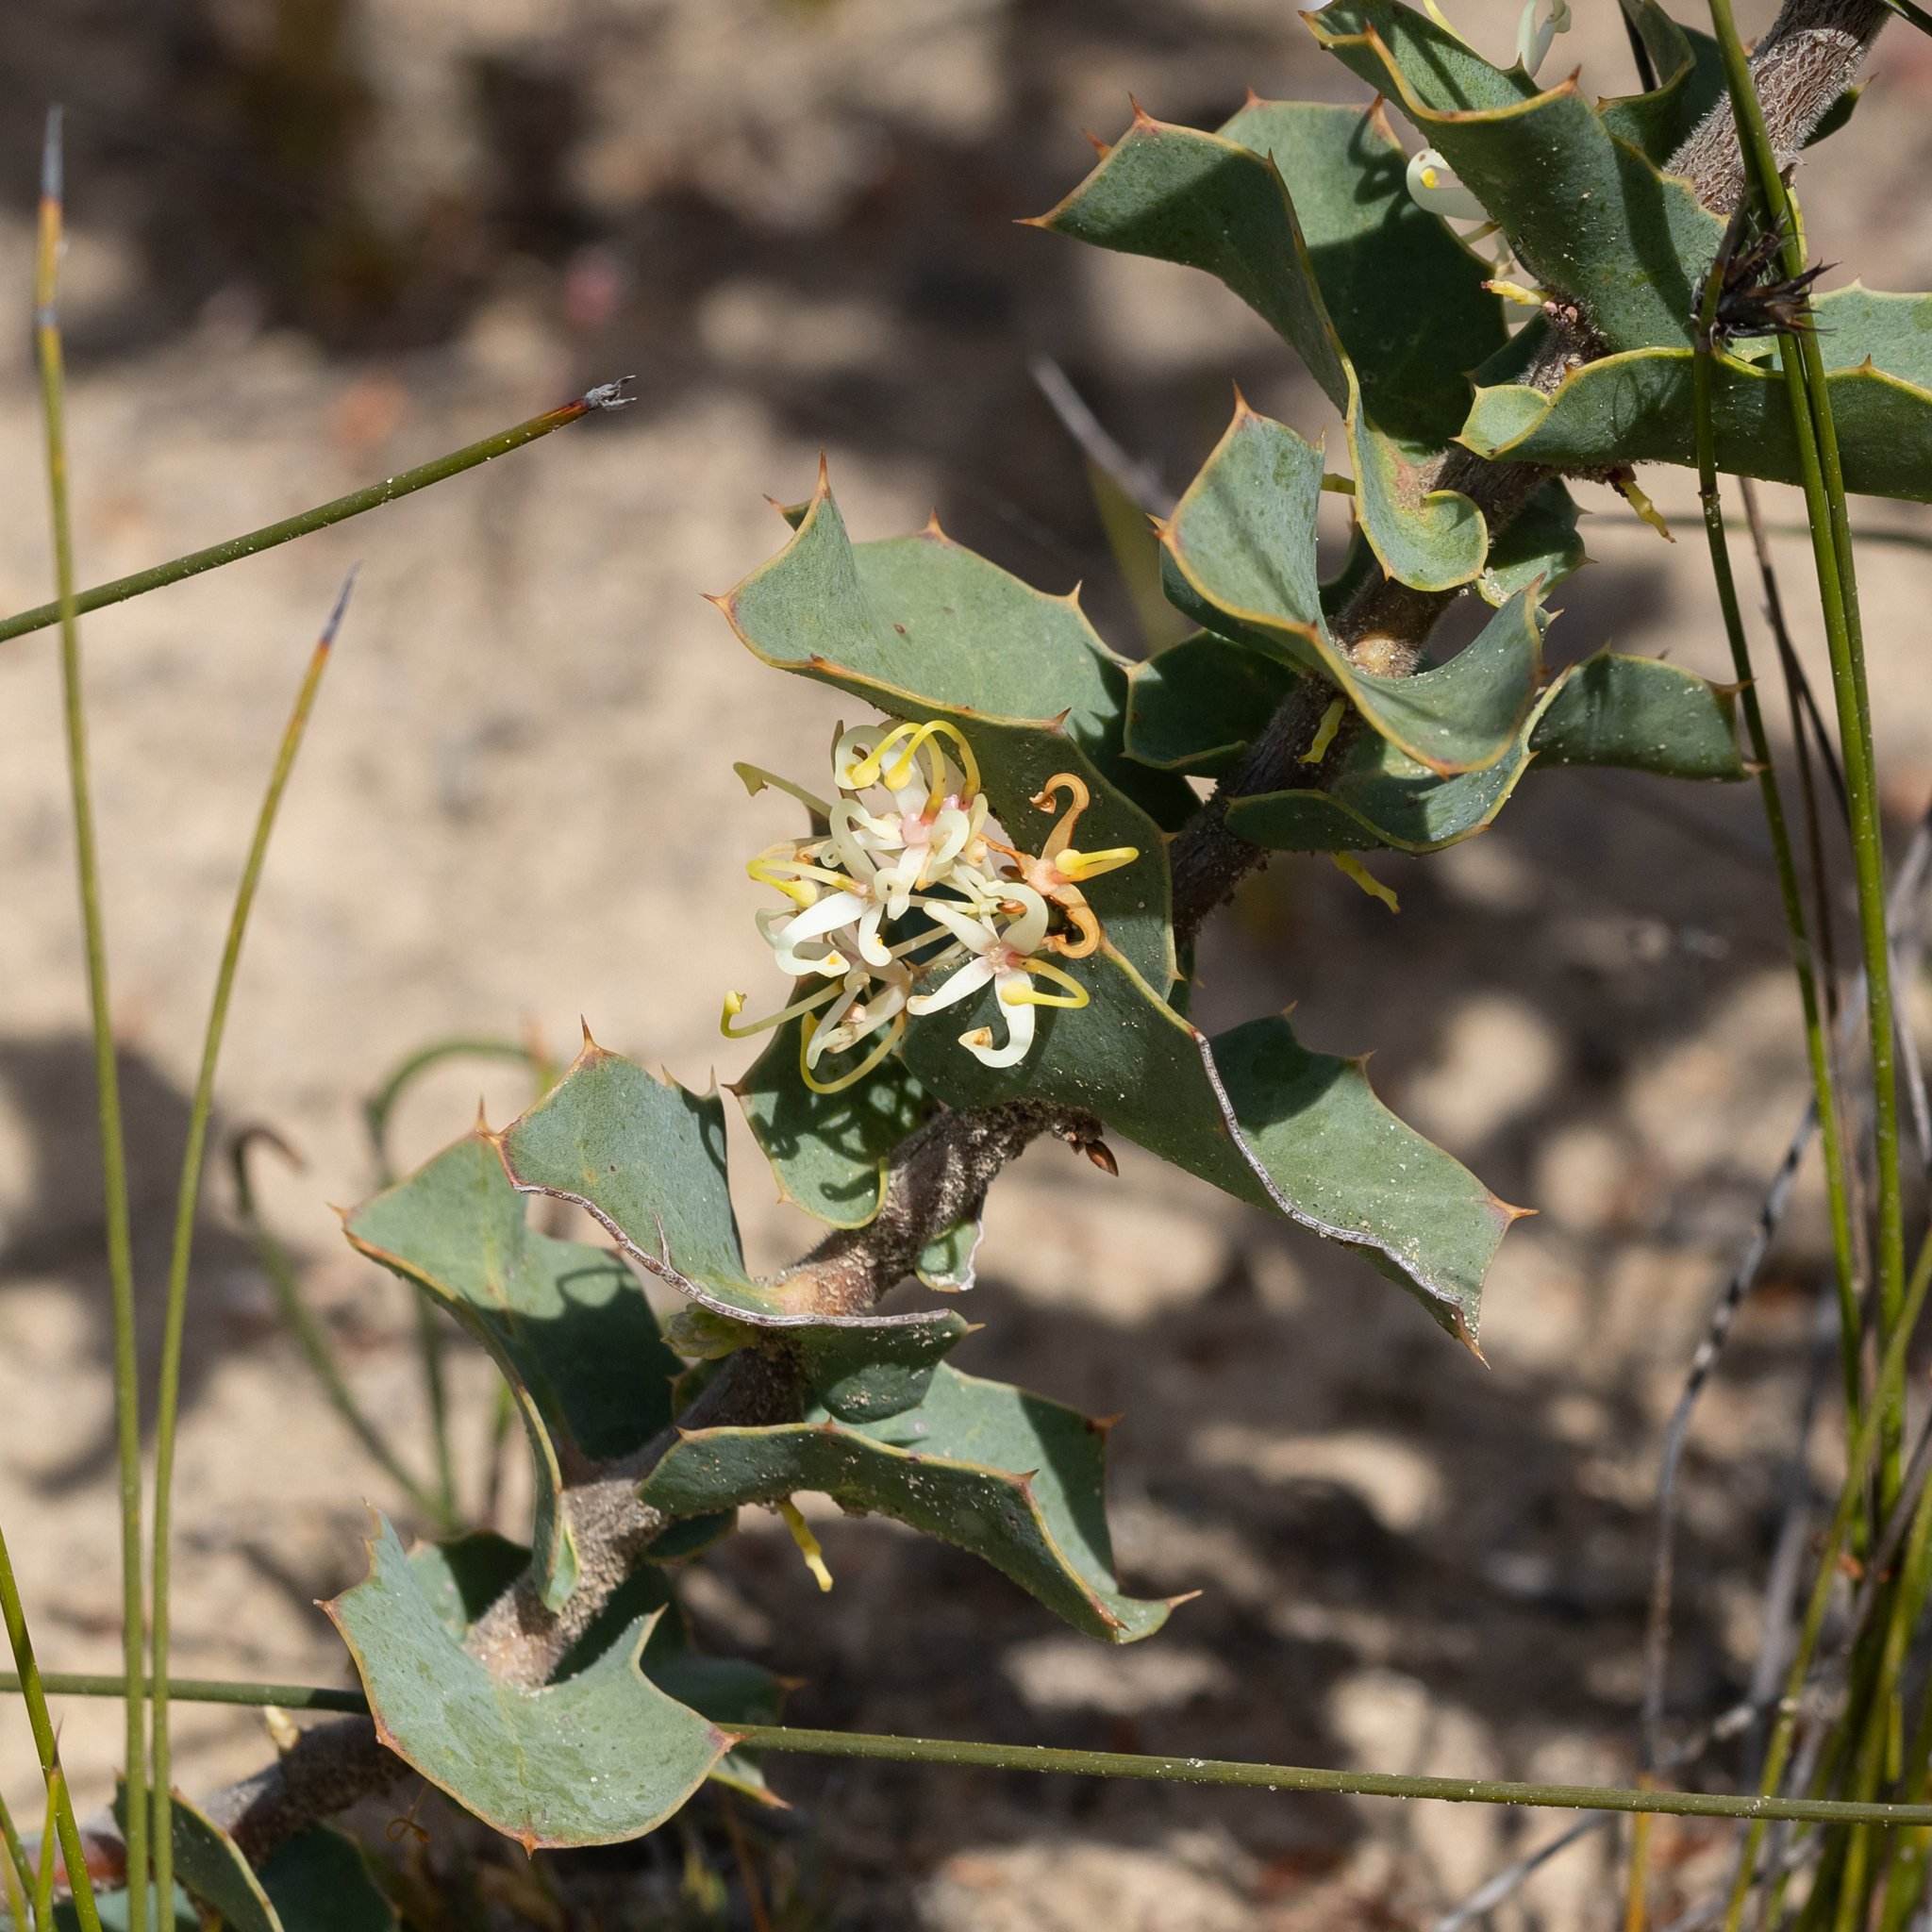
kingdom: Plantae
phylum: Tracheophyta
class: Magnoliopsida
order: Proteales
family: Proteaceae
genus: Hakea
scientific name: Hakea prostrata
